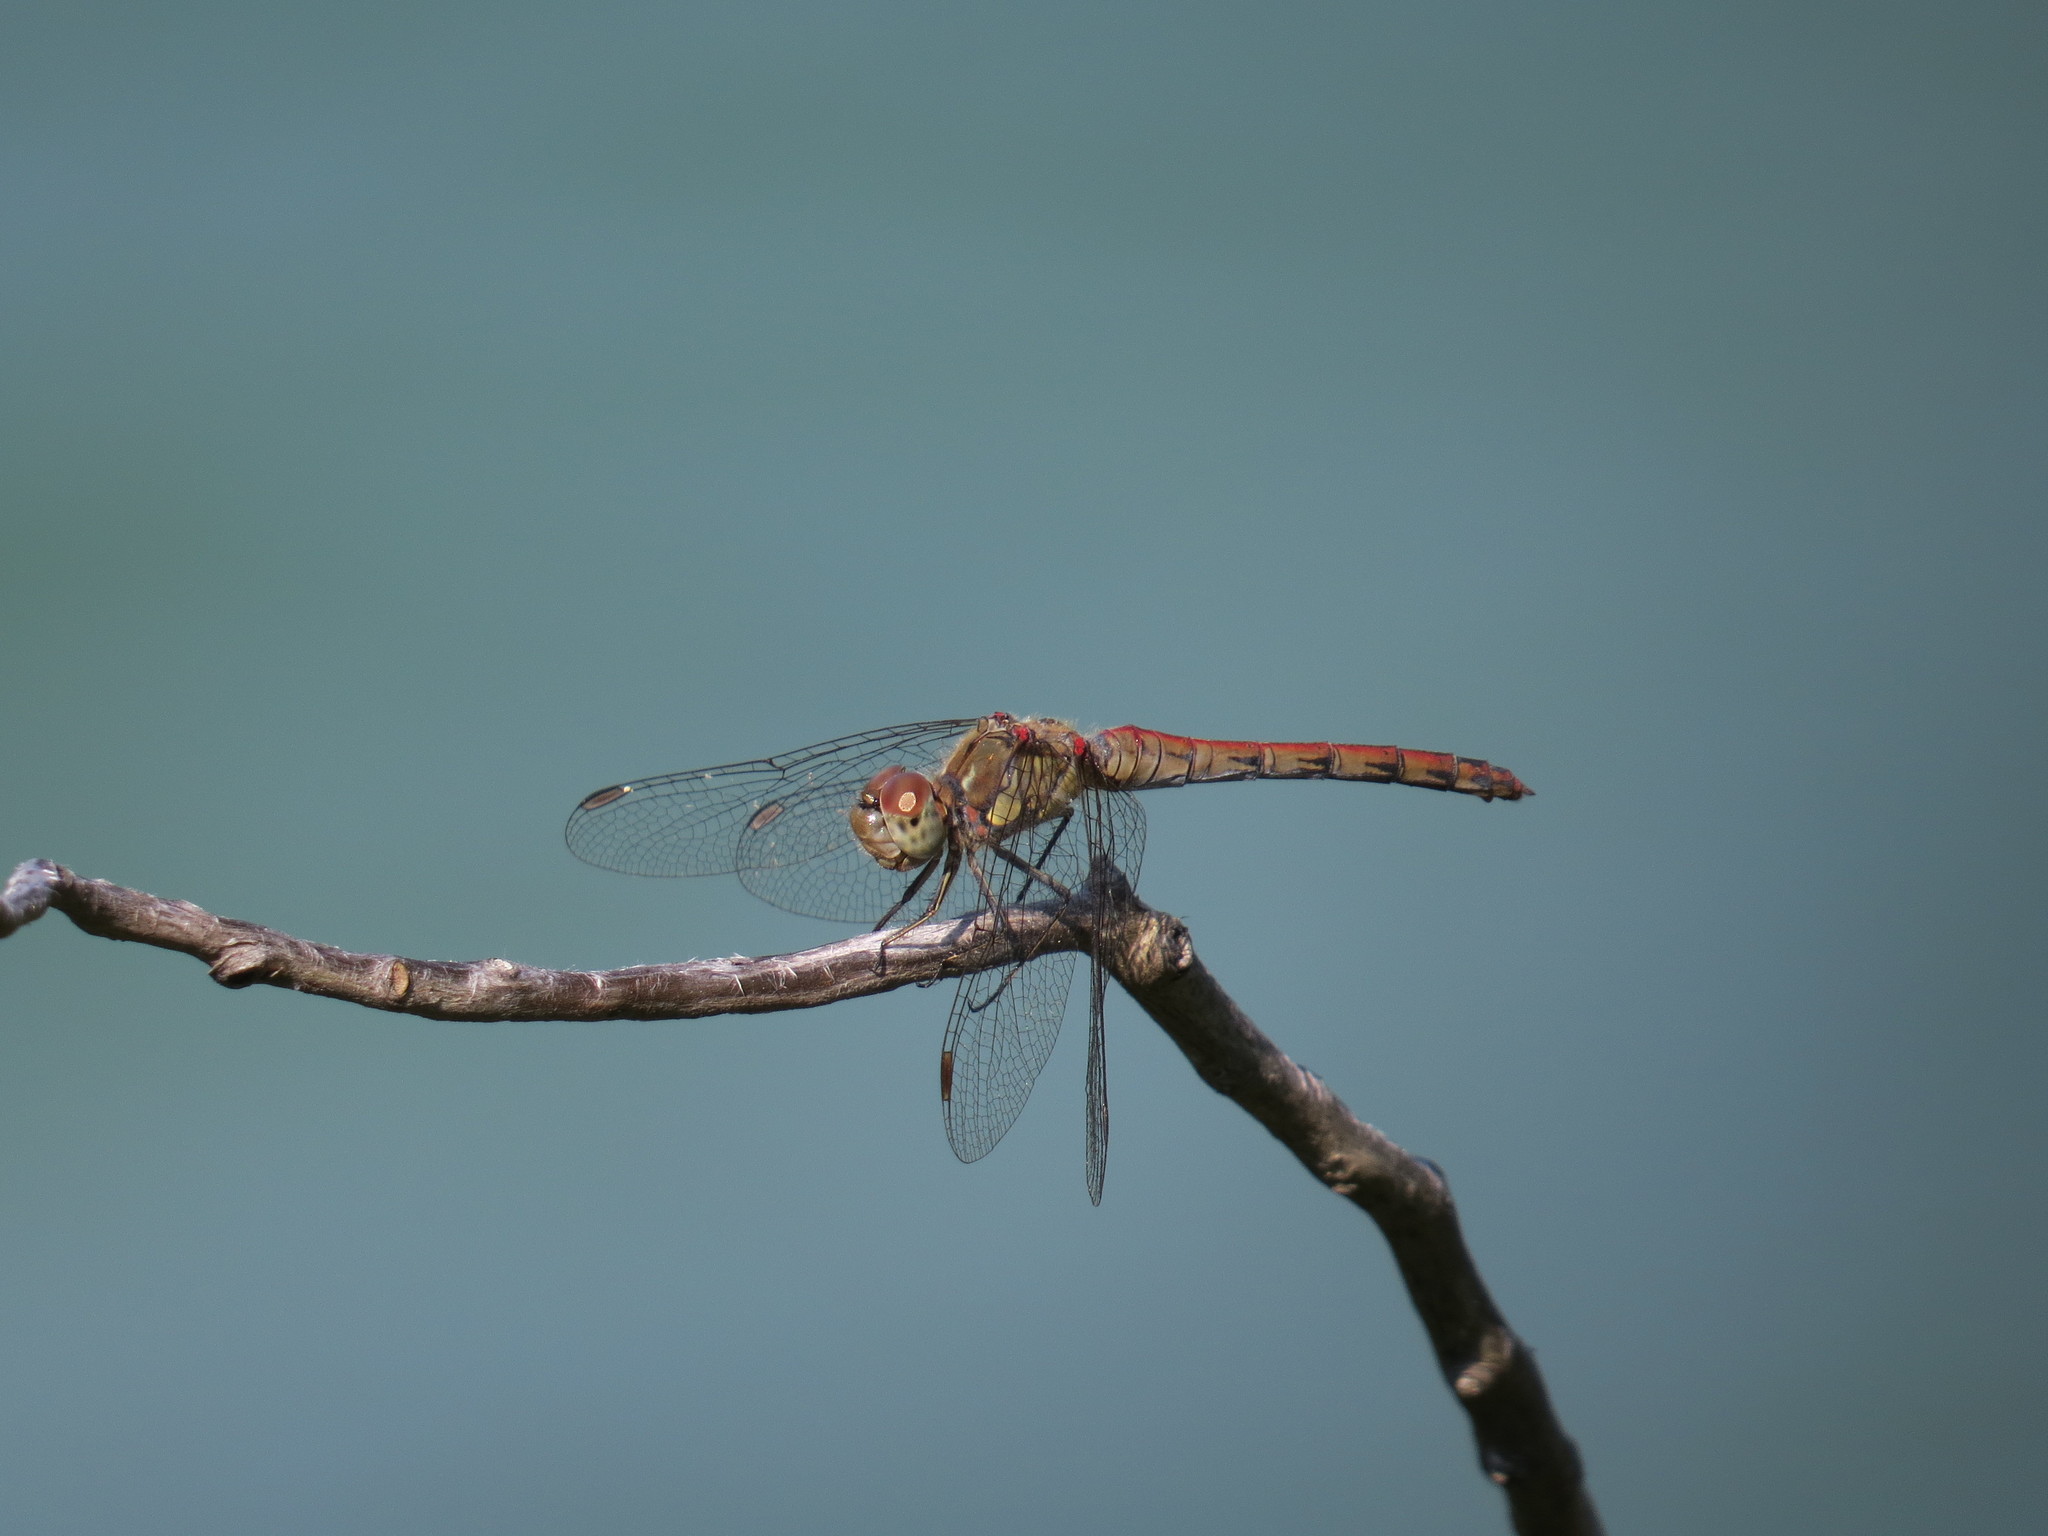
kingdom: Animalia
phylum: Arthropoda
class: Insecta
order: Odonata
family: Libellulidae
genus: Sympetrum
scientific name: Sympetrum striolatum
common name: Common darter
